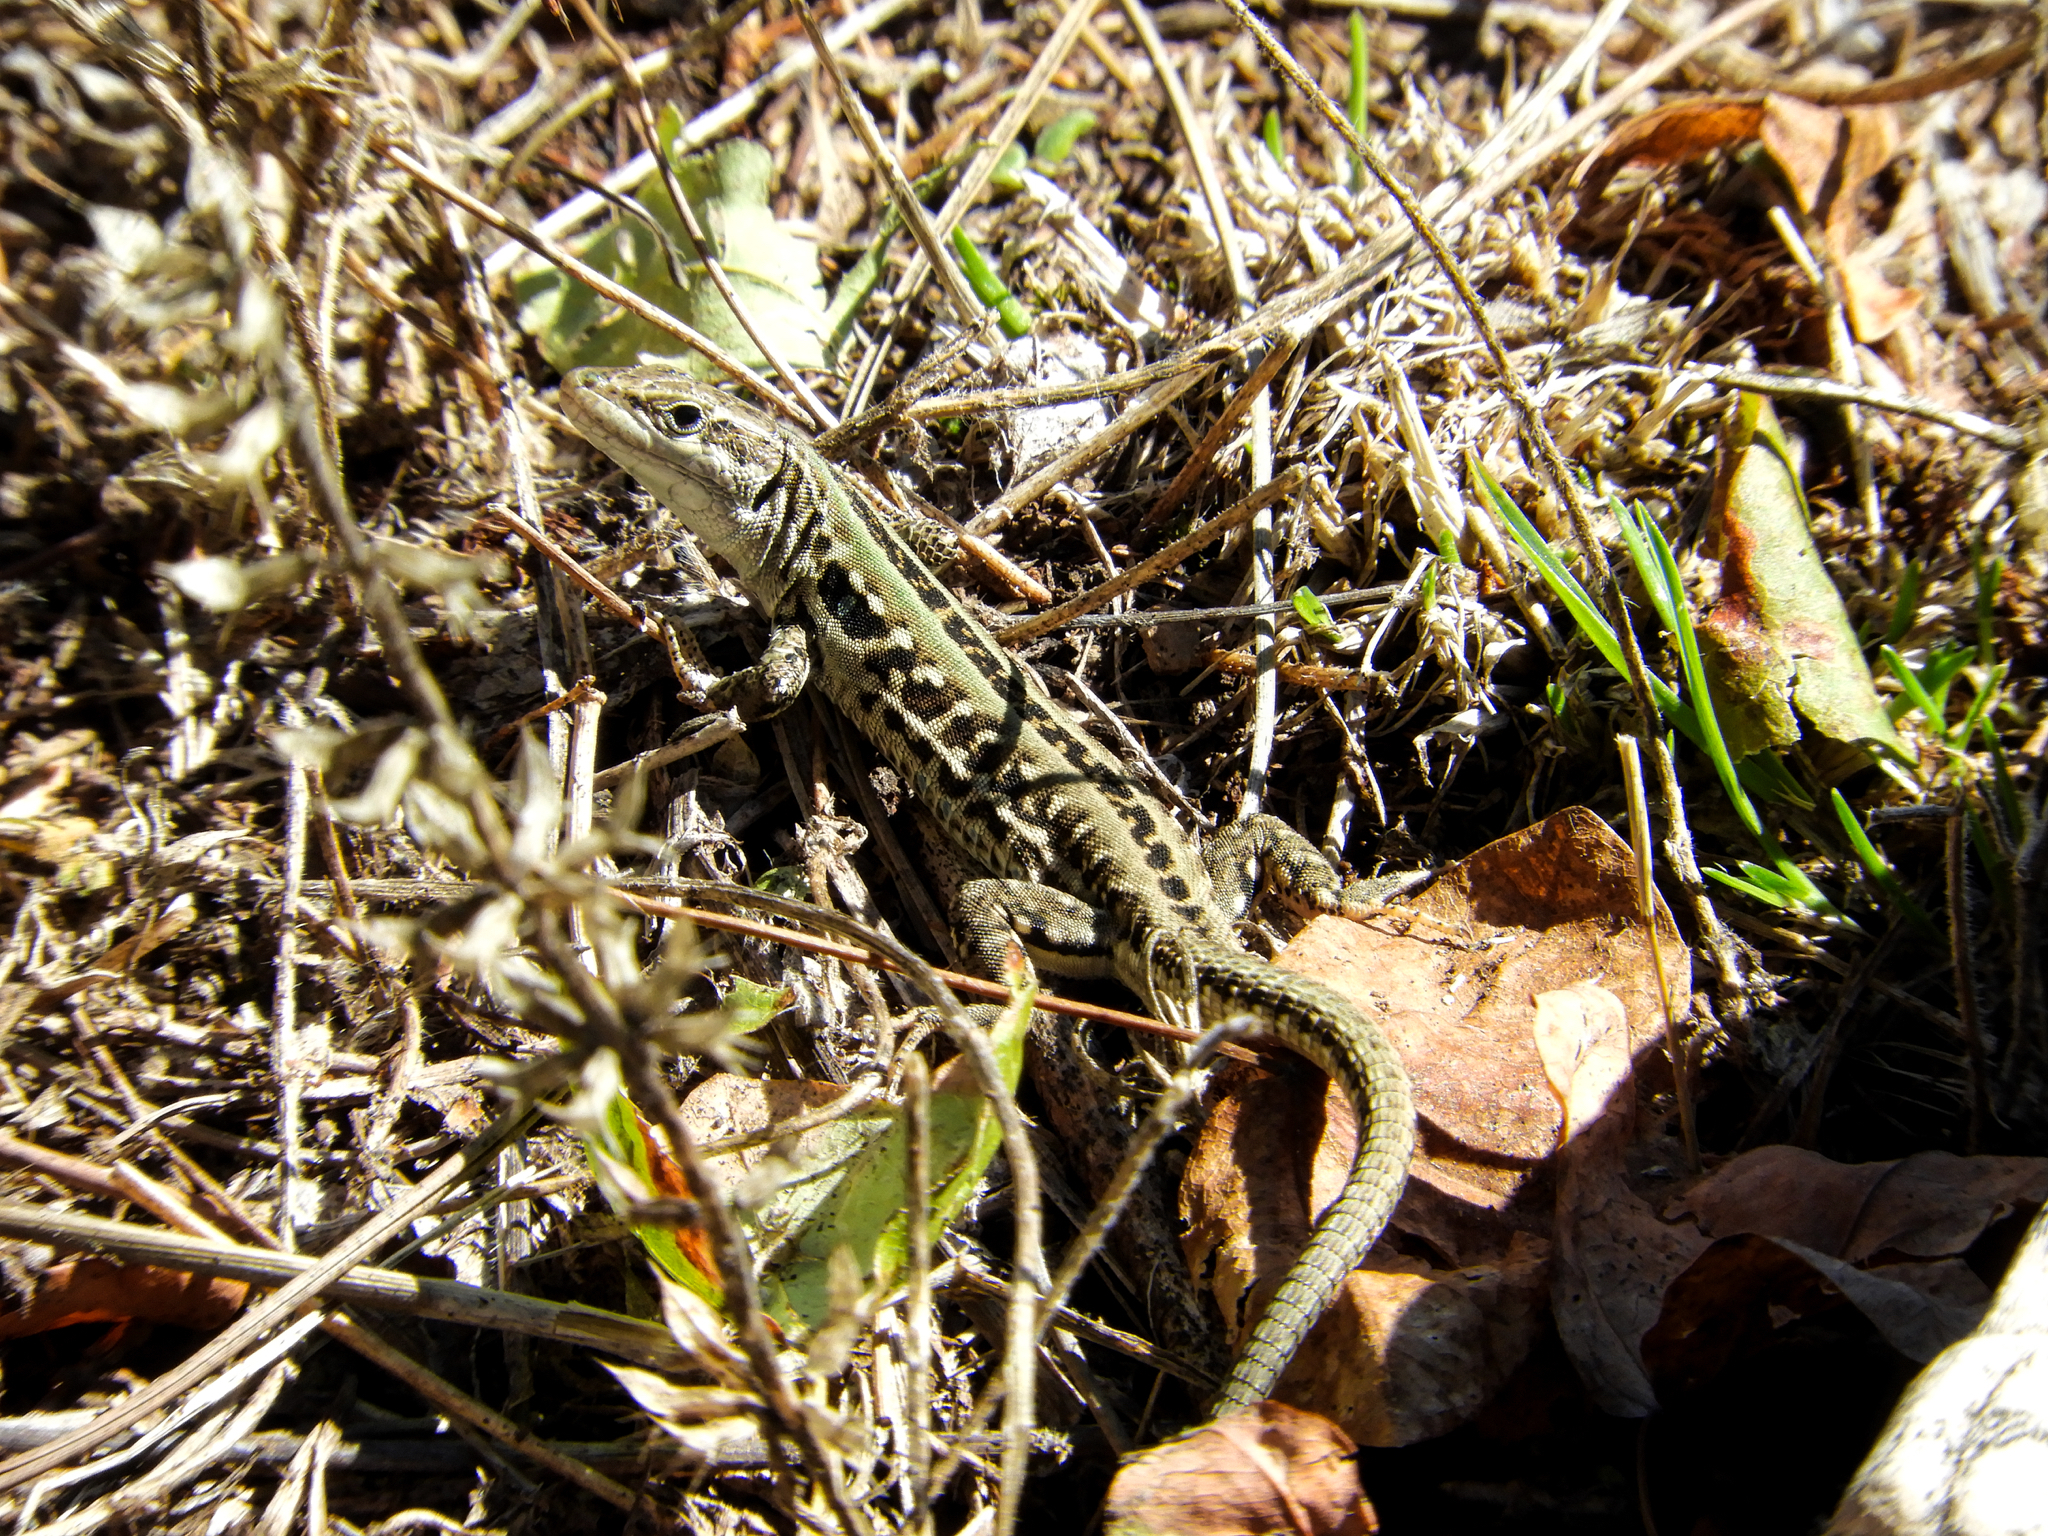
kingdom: Animalia
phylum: Chordata
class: Squamata
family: Lacertidae
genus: Podarcis
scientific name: Podarcis siculus
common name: Italian wall lizard
